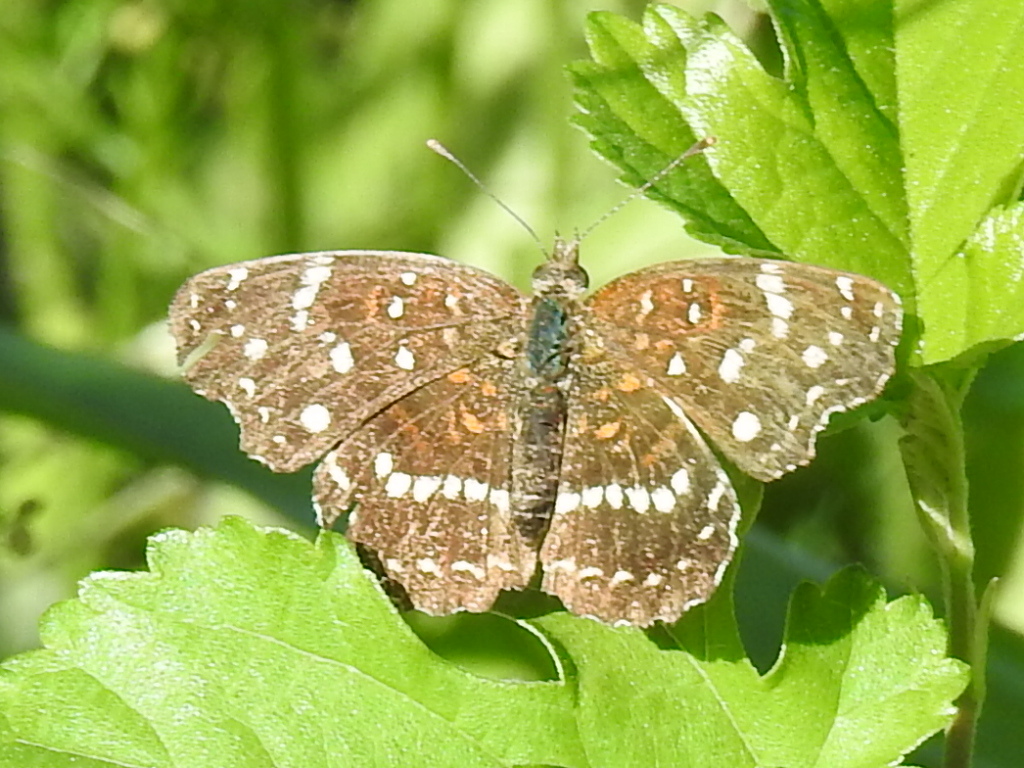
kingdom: Animalia
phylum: Arthropoda
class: Insecta
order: Lepidoptera
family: Nymphalidae
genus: Anthanassa
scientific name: Anthanassa texana
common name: Texan crescent
